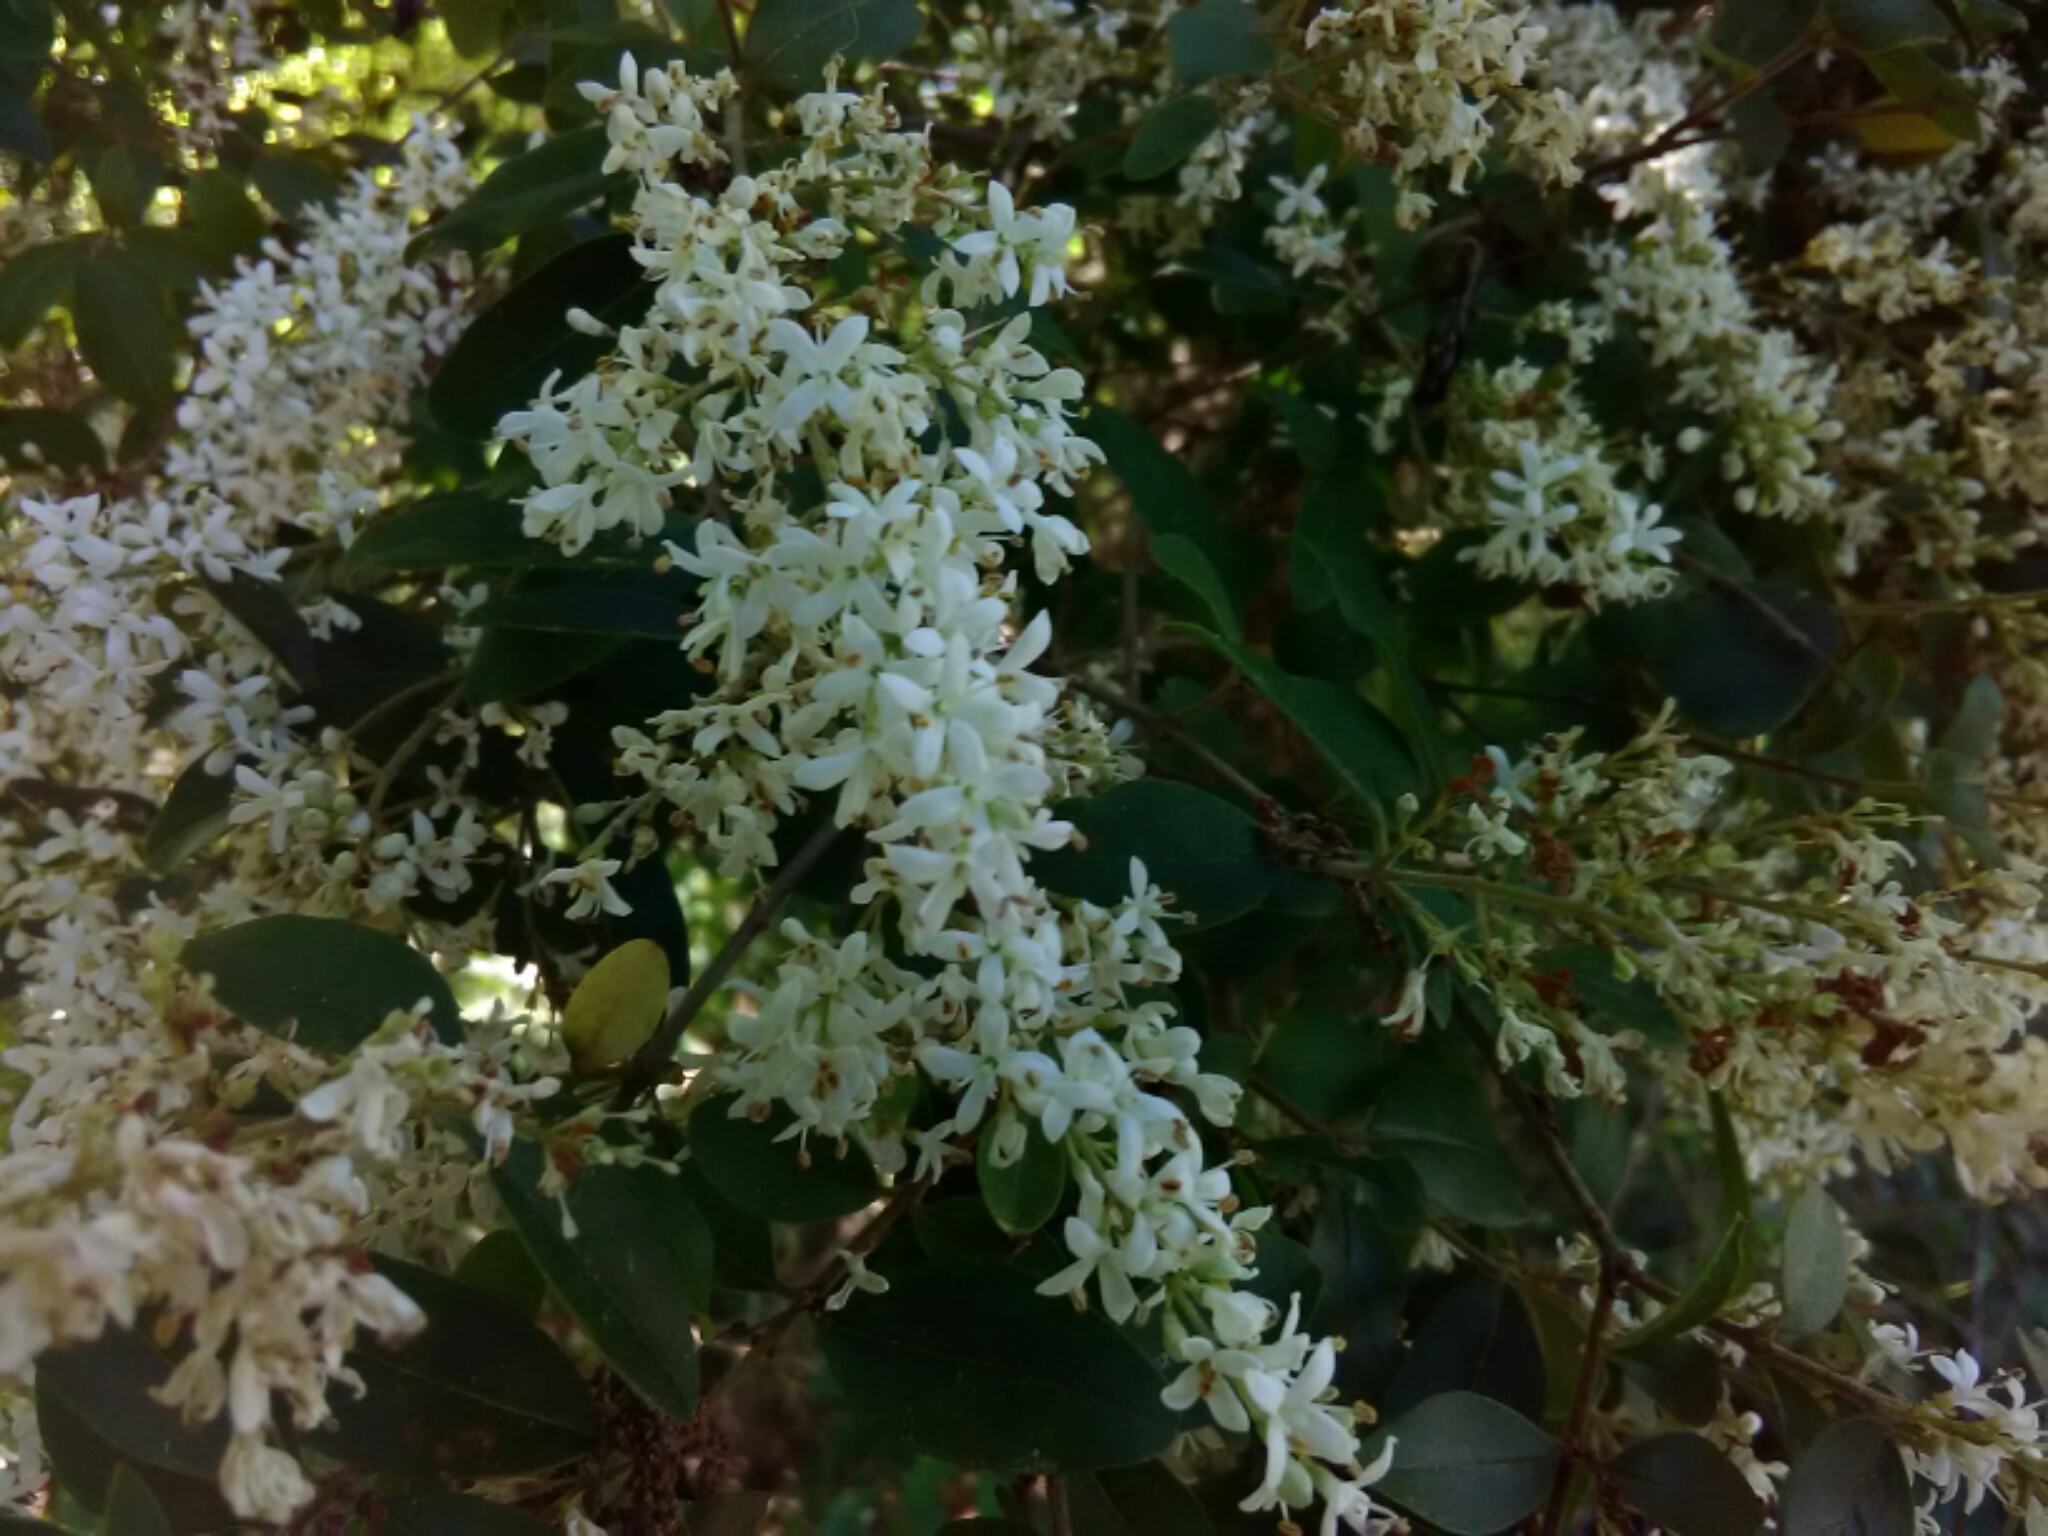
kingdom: Plantae
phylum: Tracheophyta
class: Magnoliopsida
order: Lamiales
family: Oleaceae
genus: Ligustrum
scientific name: Ligustrum sinense
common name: Chinese privet
